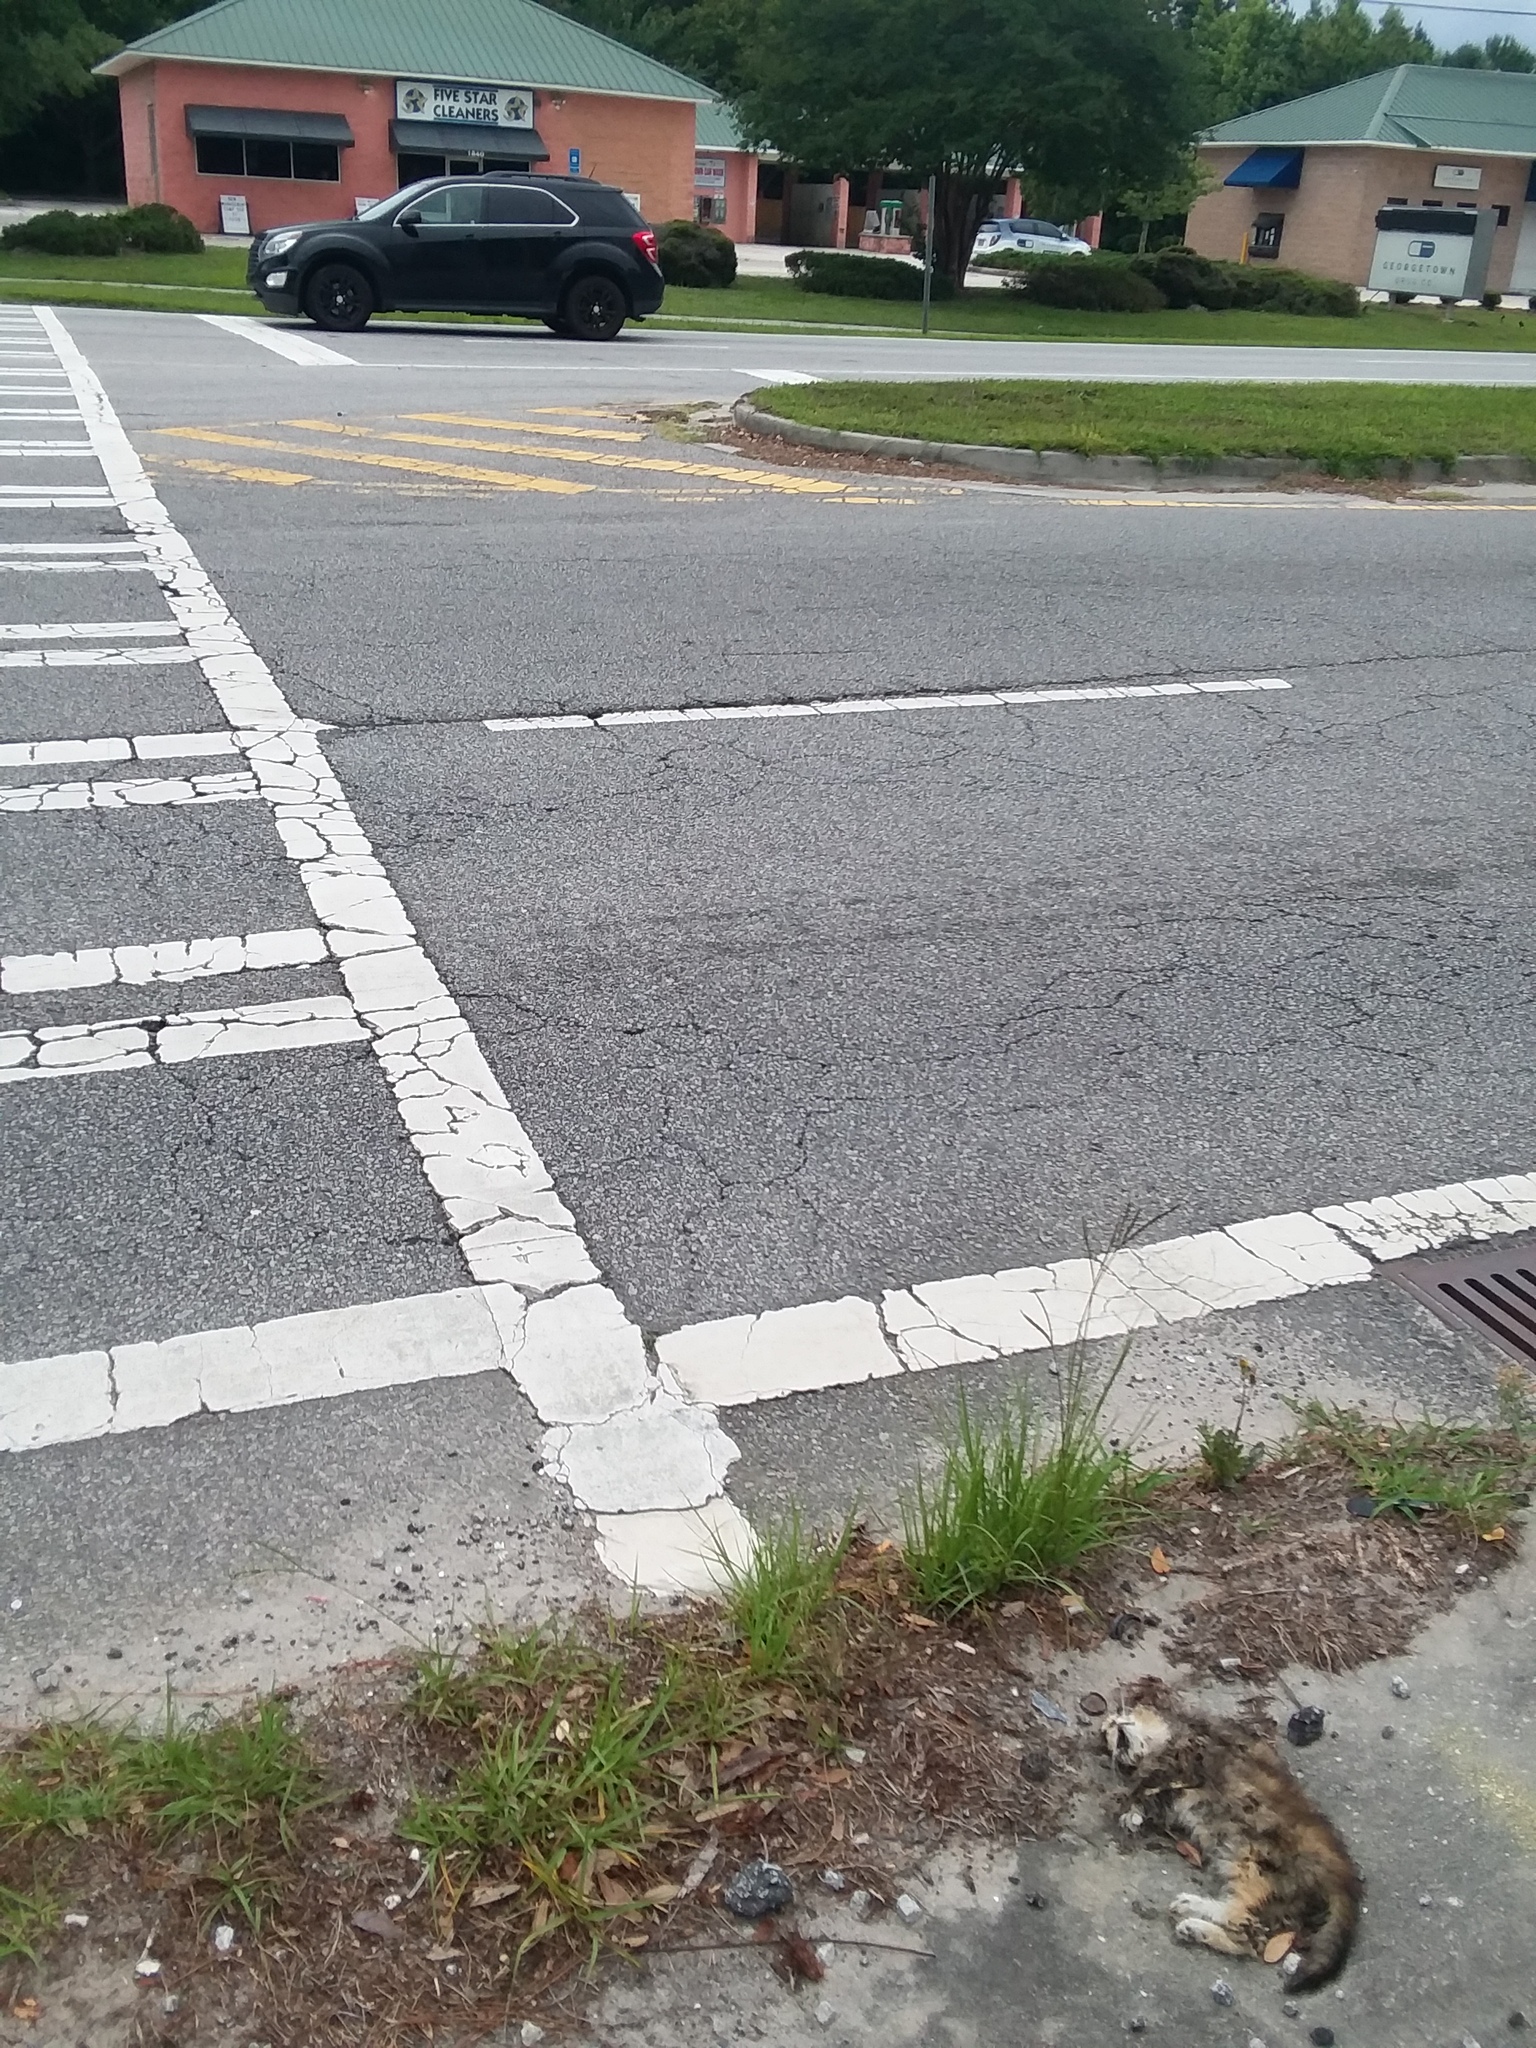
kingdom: Animalia
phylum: Chordata
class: Mammalia
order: Carnivora
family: Felidae
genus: Felis
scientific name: Felis catus
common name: Domestic cat
